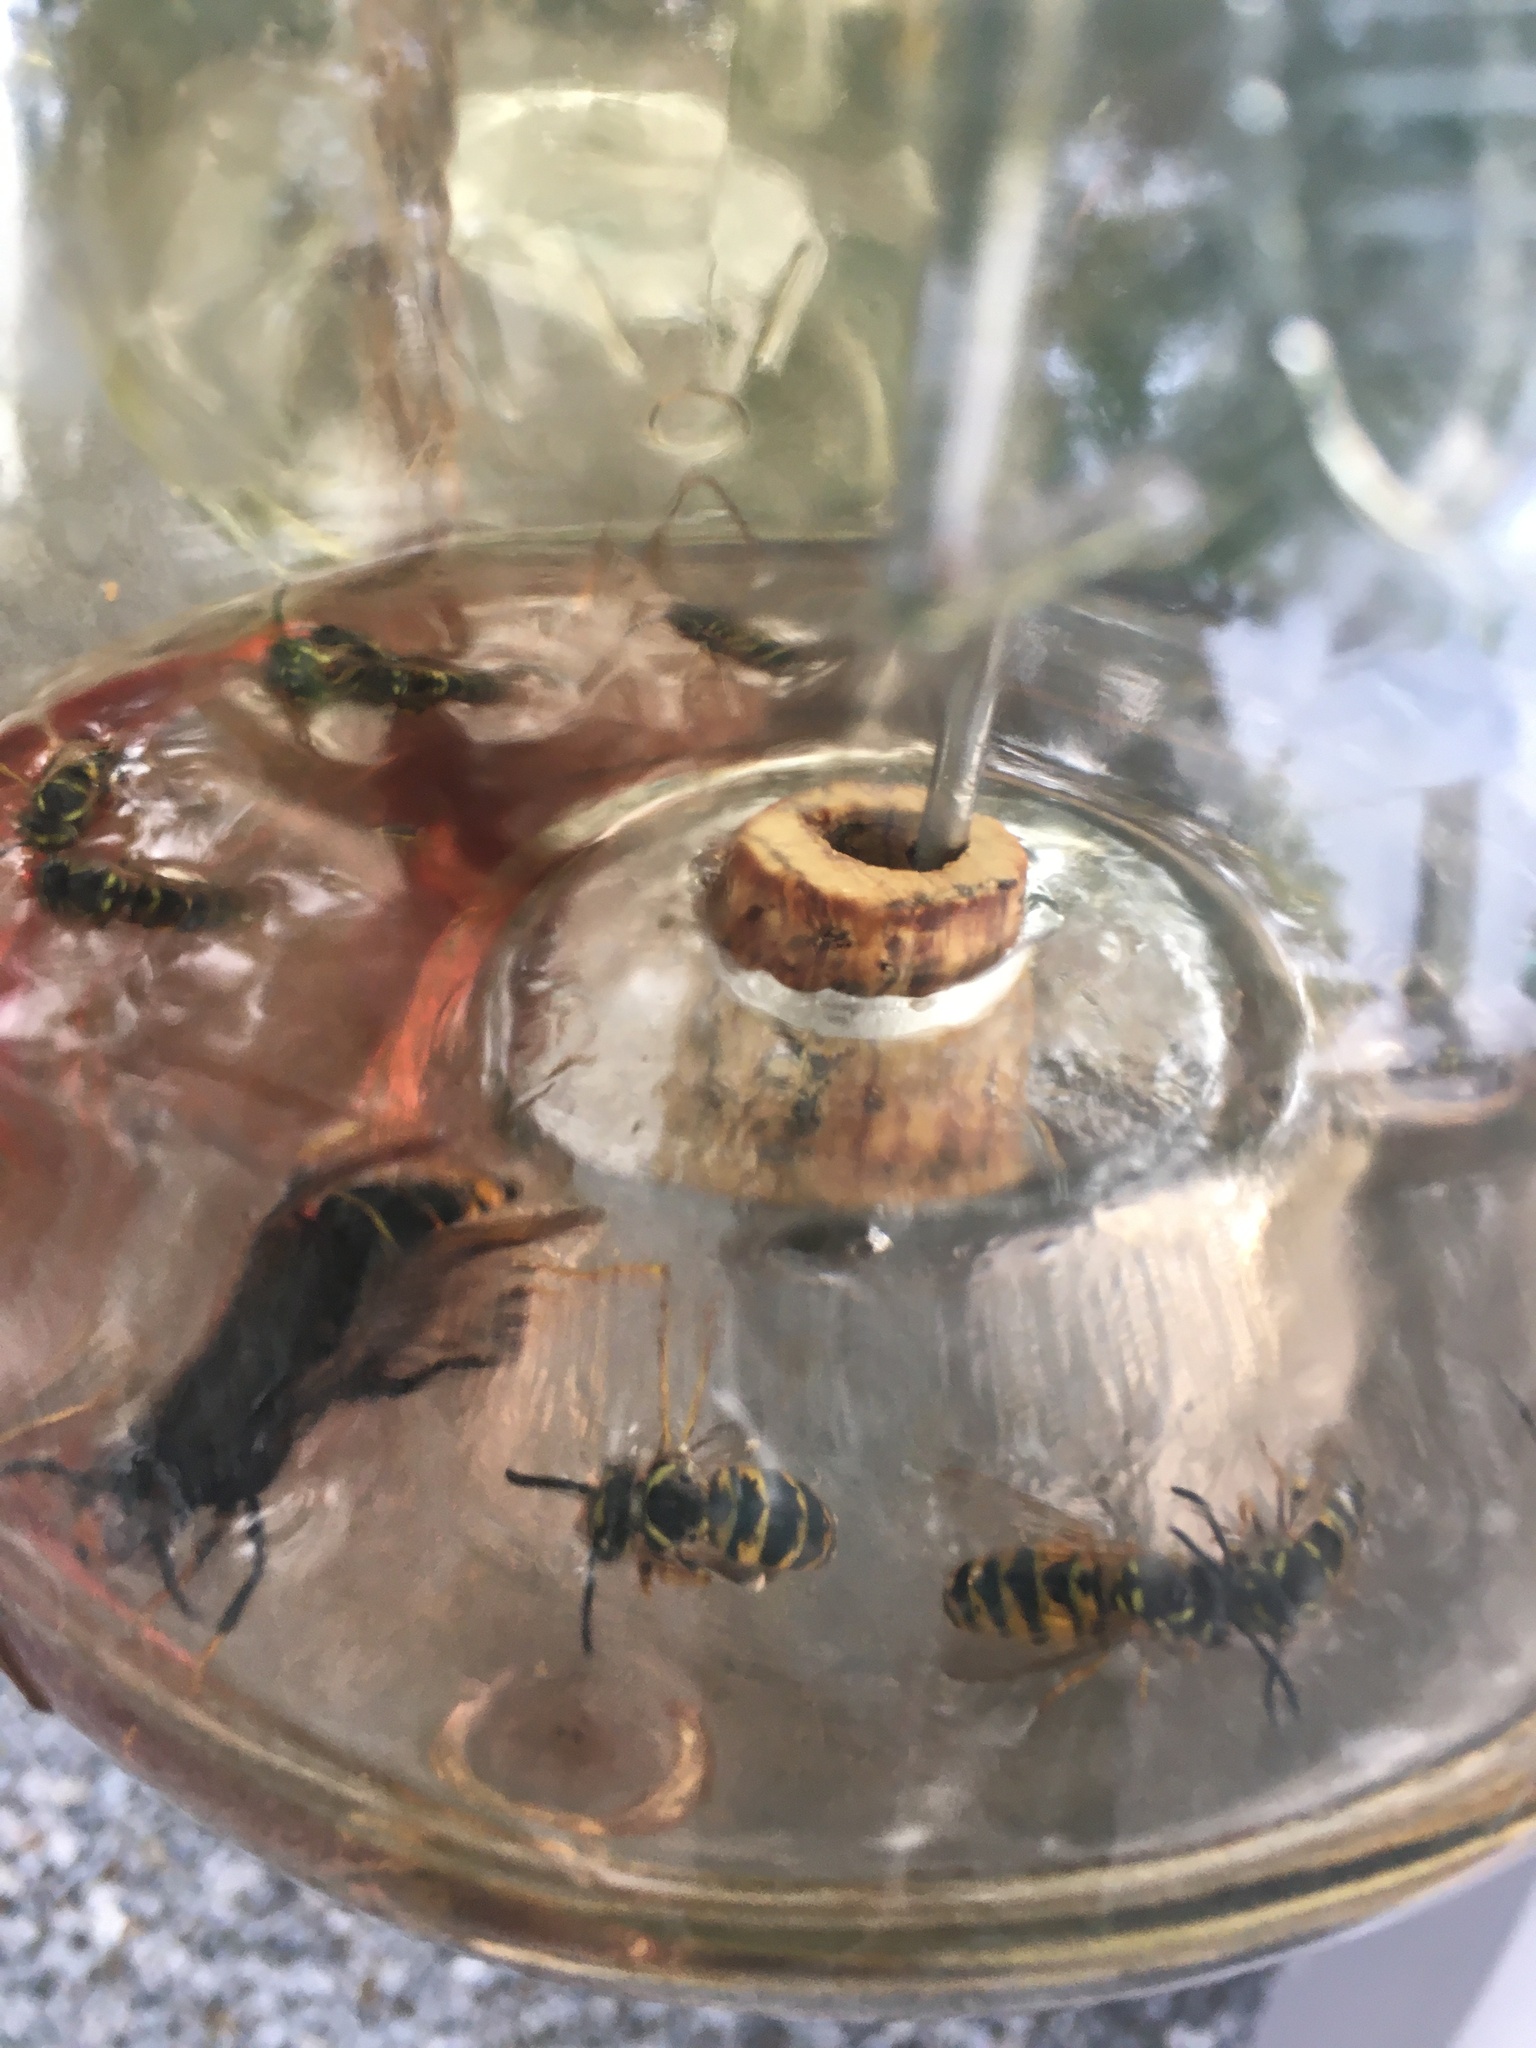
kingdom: Animalia
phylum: Arthropoda
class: Insecta
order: Hymenoptera
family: Vespidae
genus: Vespa
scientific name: Vespa velutina
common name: Asian hornet
